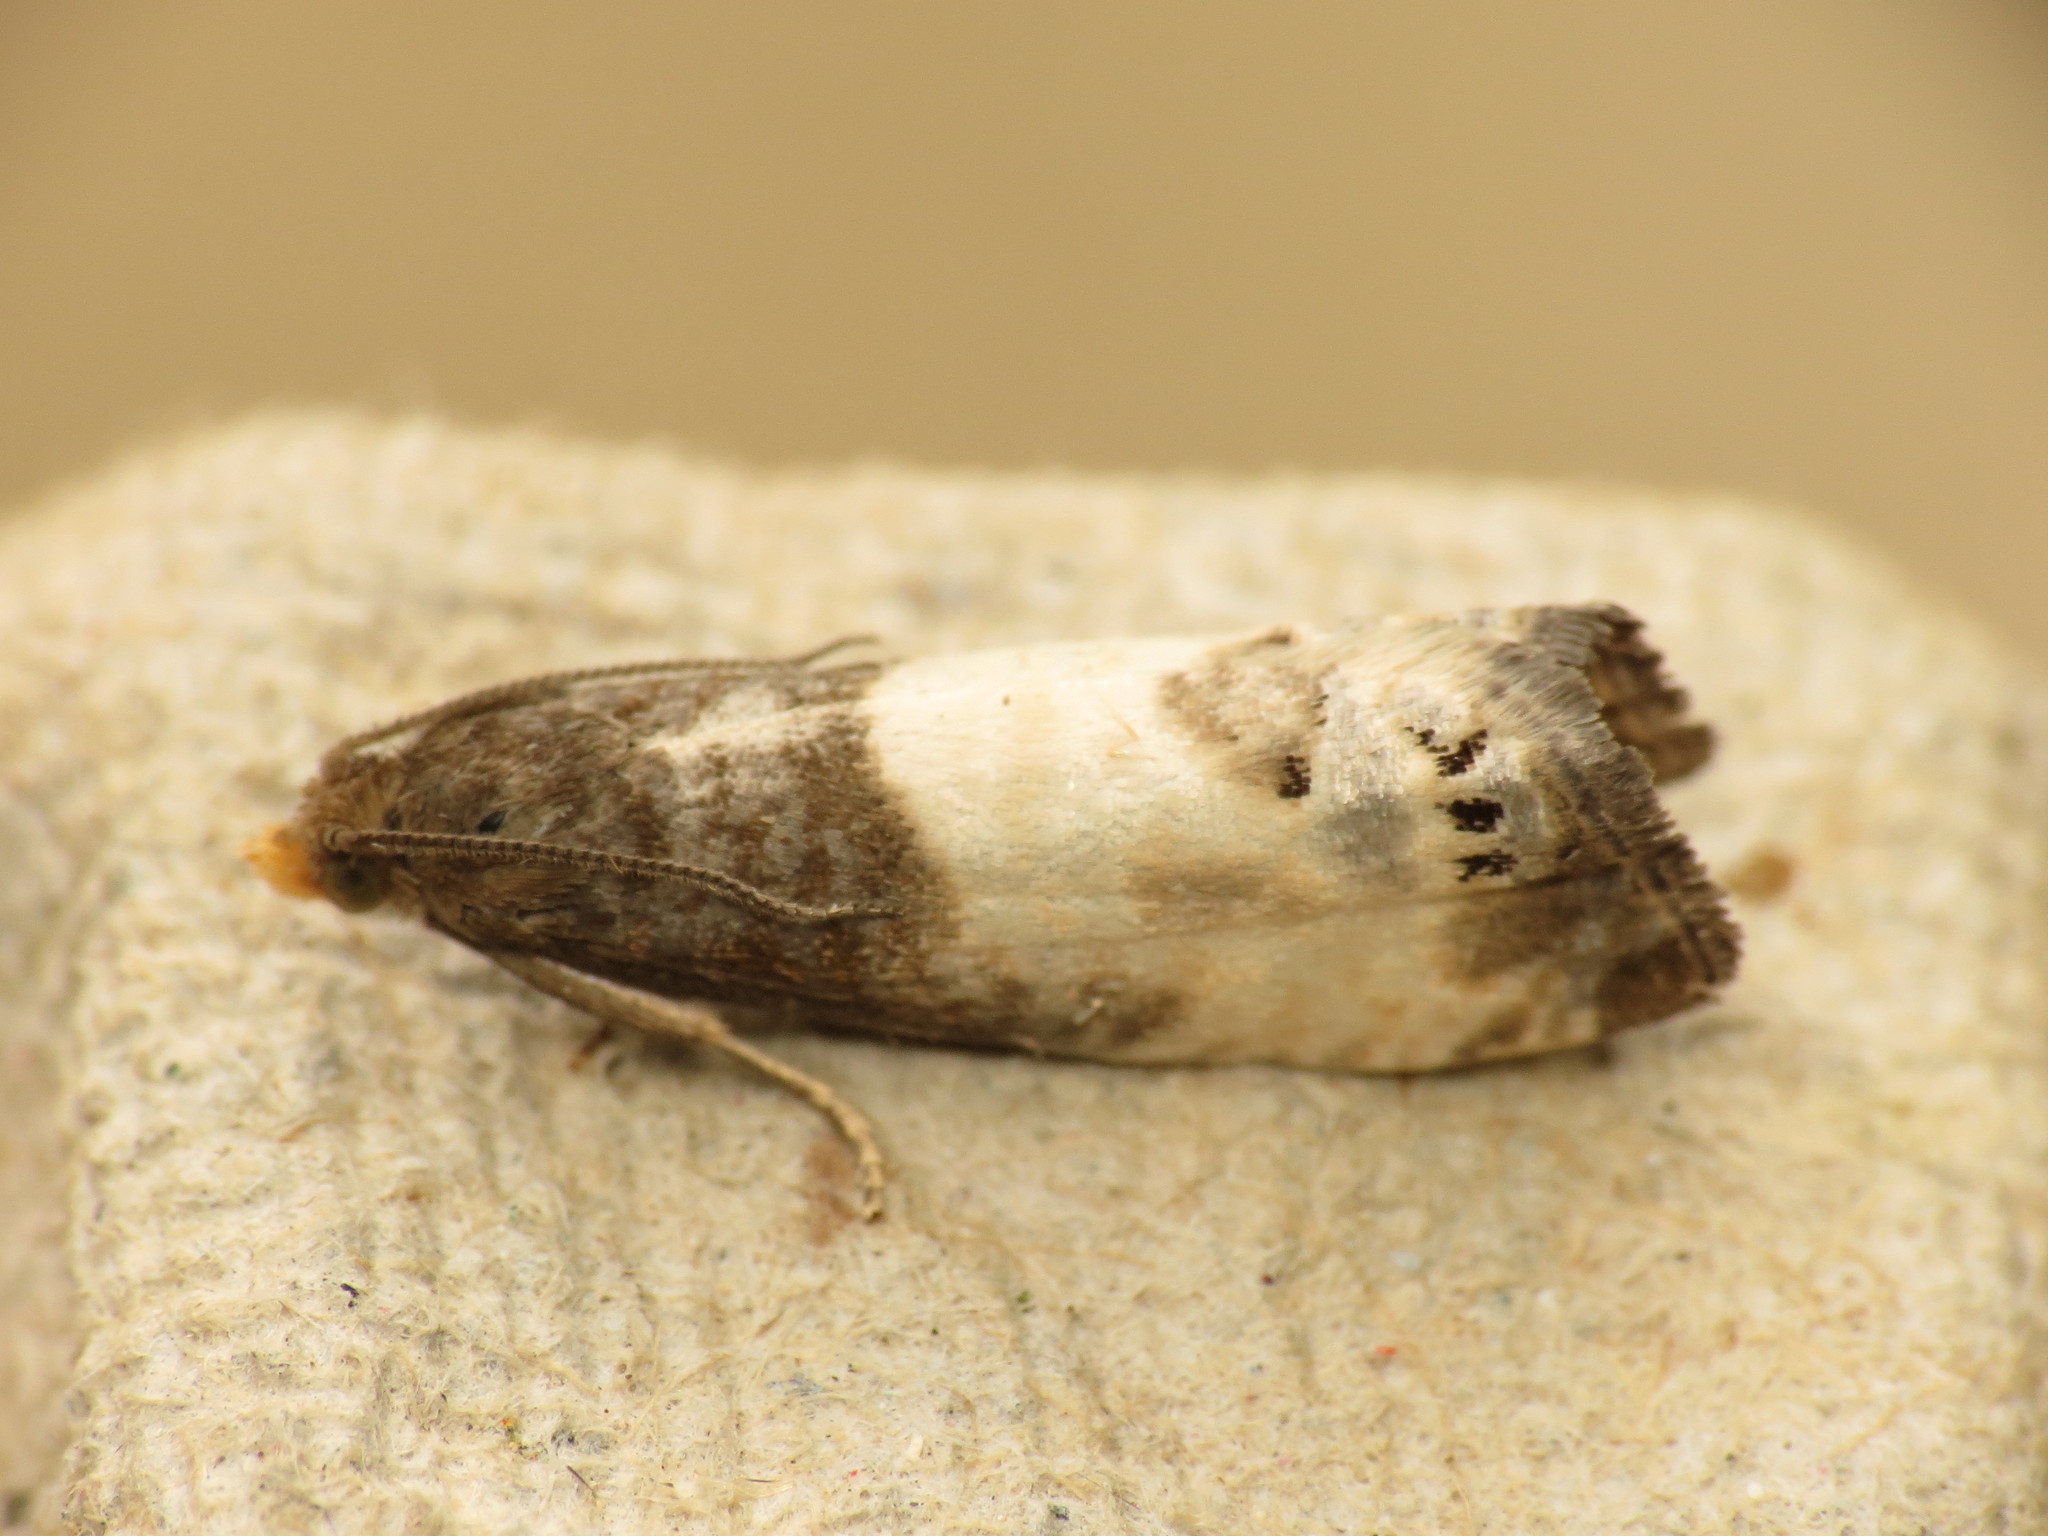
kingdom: Animalia
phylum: Arthropoda
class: Insecta
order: Lepidoptera
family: Tortricidae
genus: Notocelia
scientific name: Notocelia cynosbatella
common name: Yellow-faced bell moth
